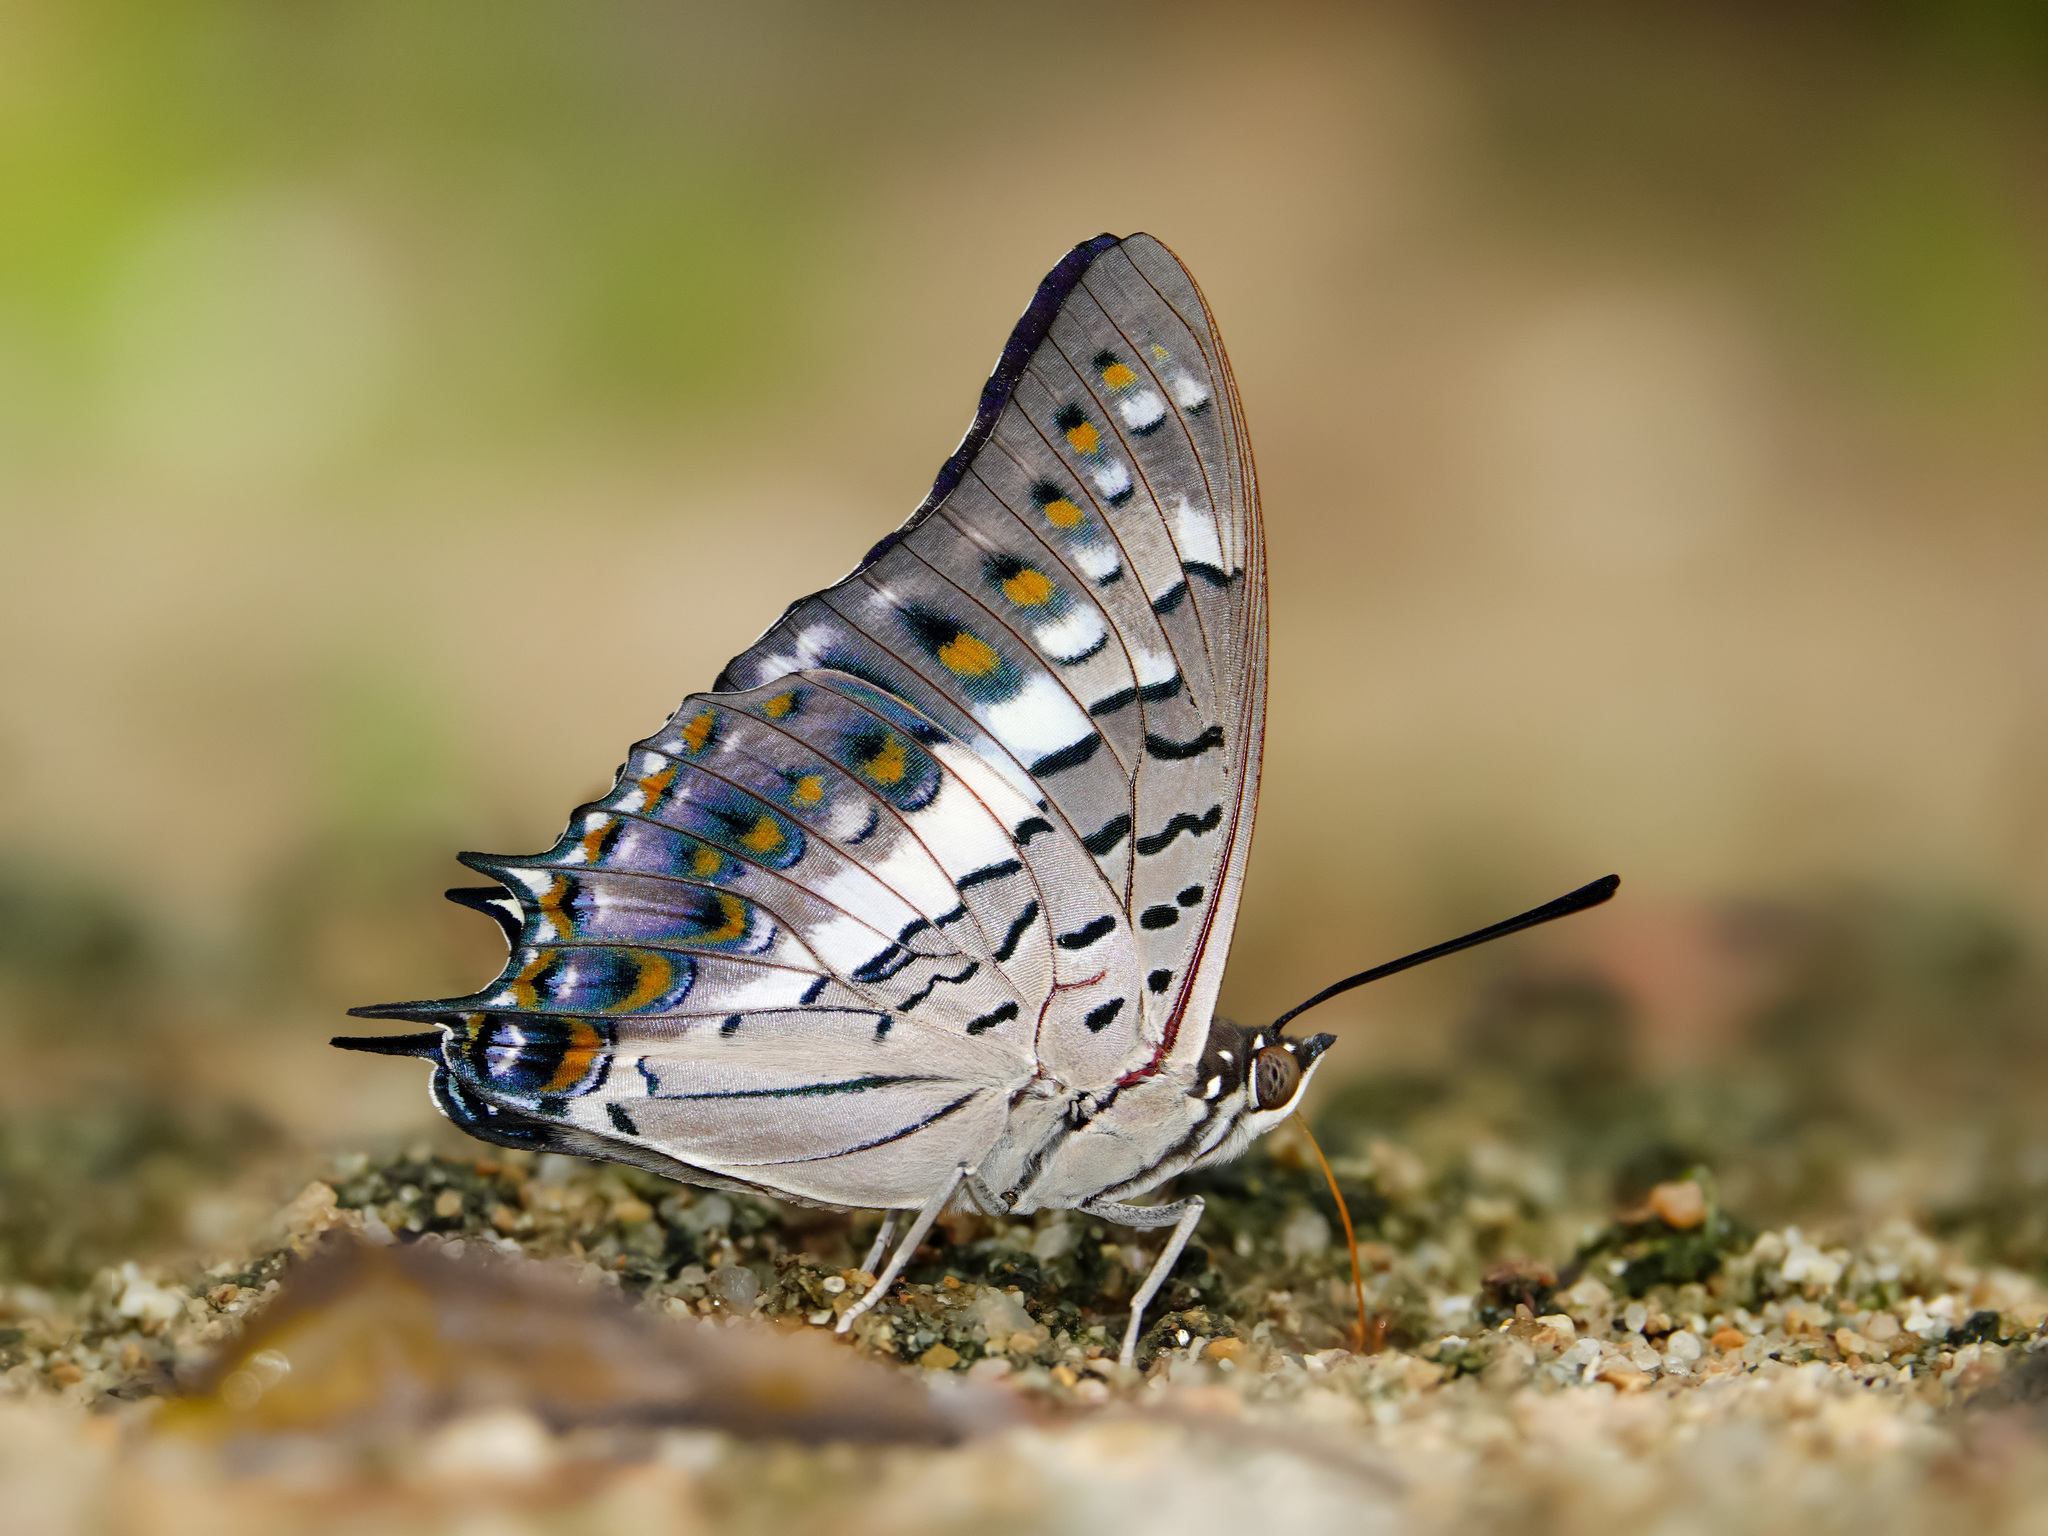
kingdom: Animalia
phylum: Arthropoda
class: Insecta
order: Lepidoptera
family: Nymphalidae
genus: Charaxes
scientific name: Charaxes solon
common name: Black rajah
